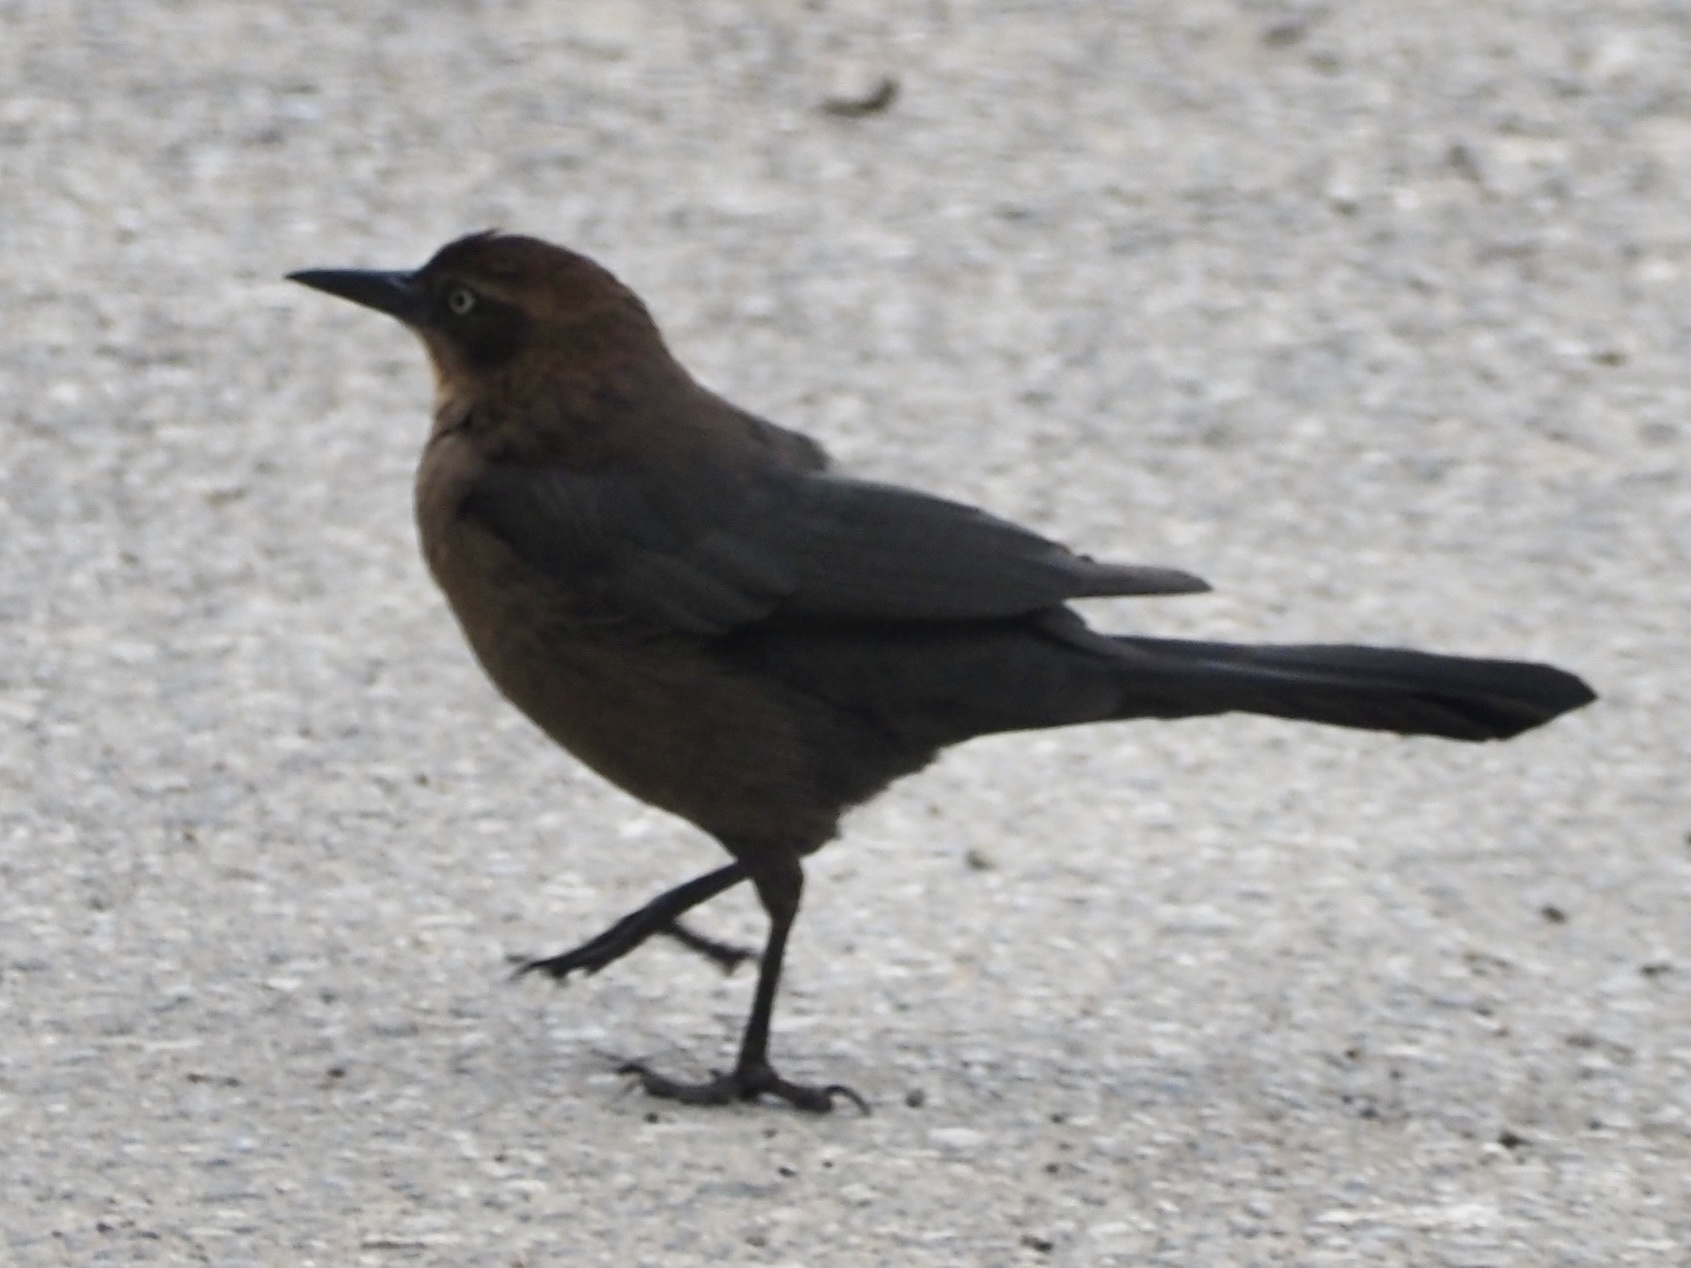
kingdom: Animalia
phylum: Chordata
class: Aves
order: Passeriformes
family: Icteridae
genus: Quiscalus
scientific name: Quiscalus mexicanus
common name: Great-tailed grackle
